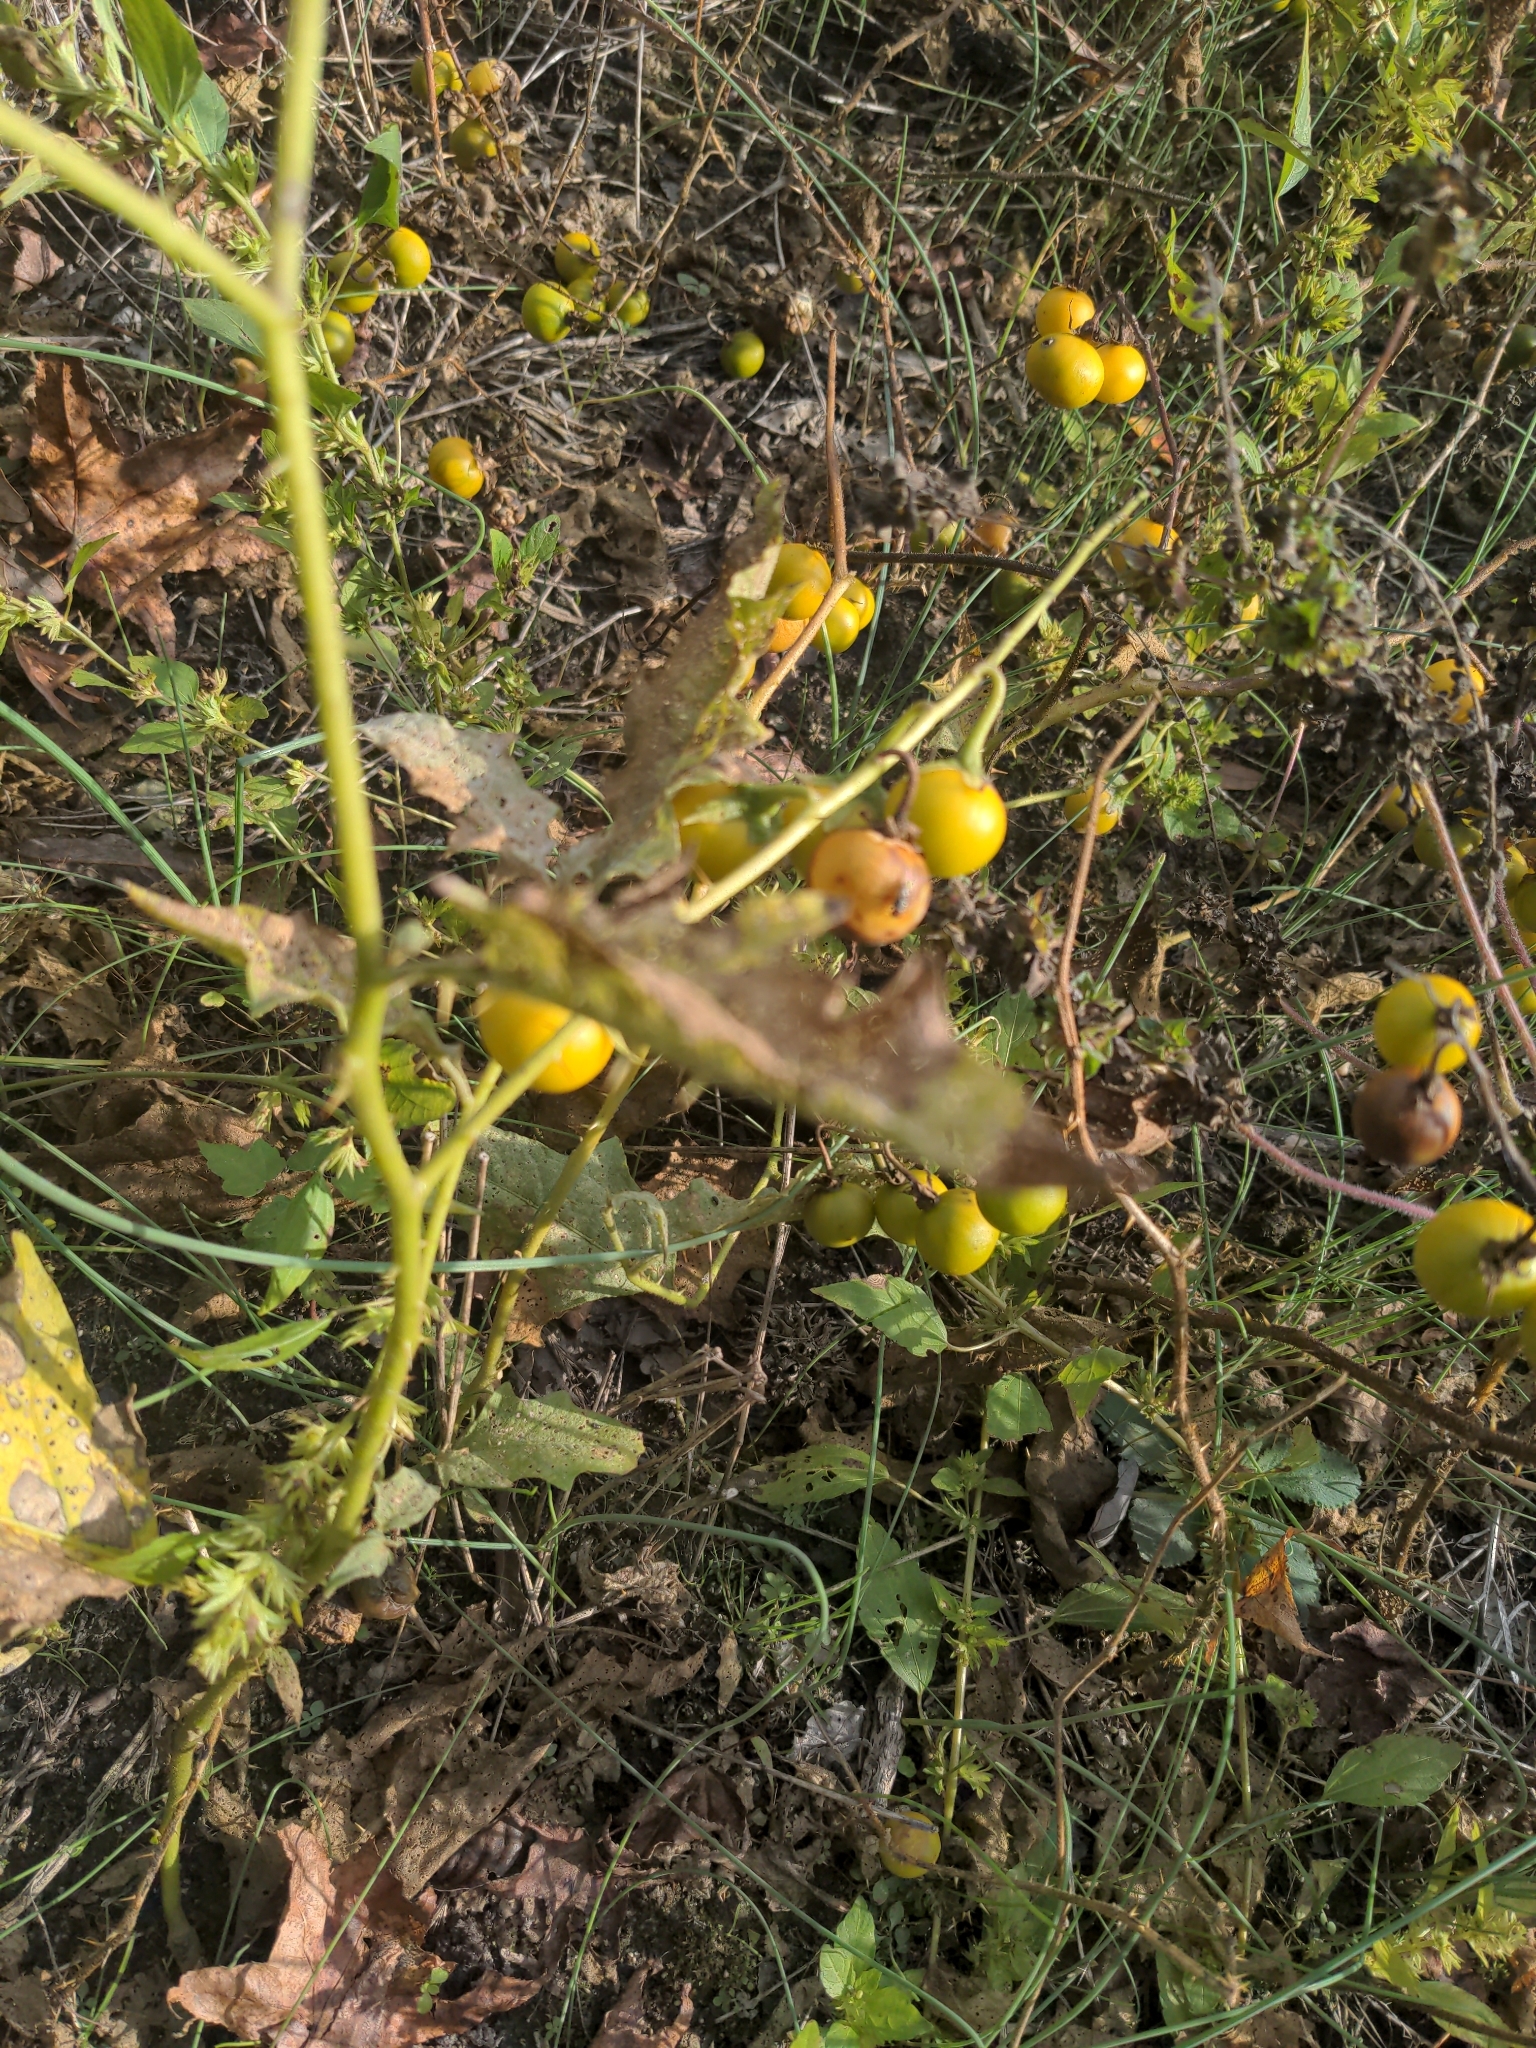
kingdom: Plantae
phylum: Tracheophyta
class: Magnoliopsida
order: Solanales
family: Solanaceae
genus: Solanum
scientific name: Solanum carolinense
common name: Horse-nettle
